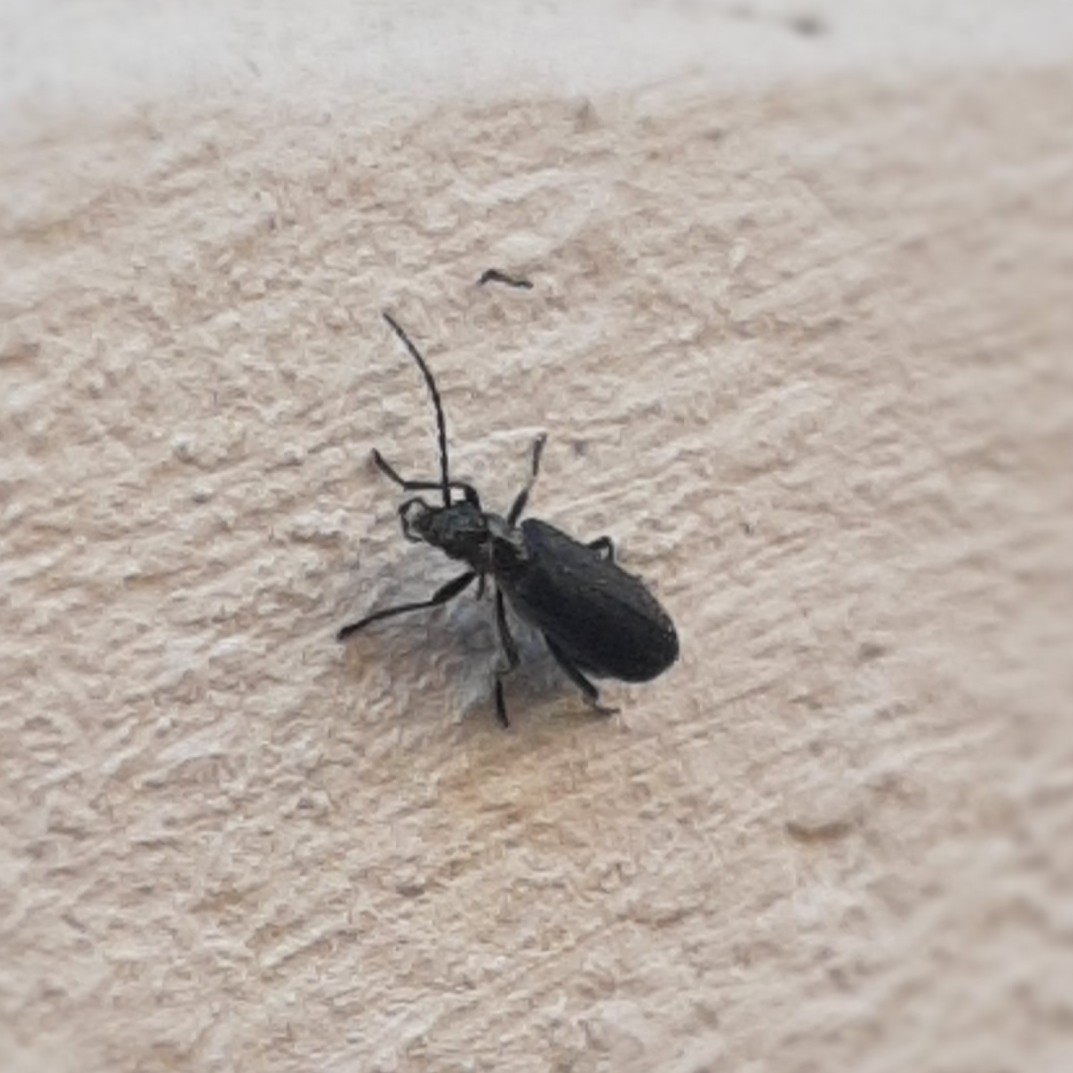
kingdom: Animalia
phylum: Arthropoda
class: Insecta
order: Coleoptera
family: Oedemeridae
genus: Ischnomera
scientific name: Ischnomera
